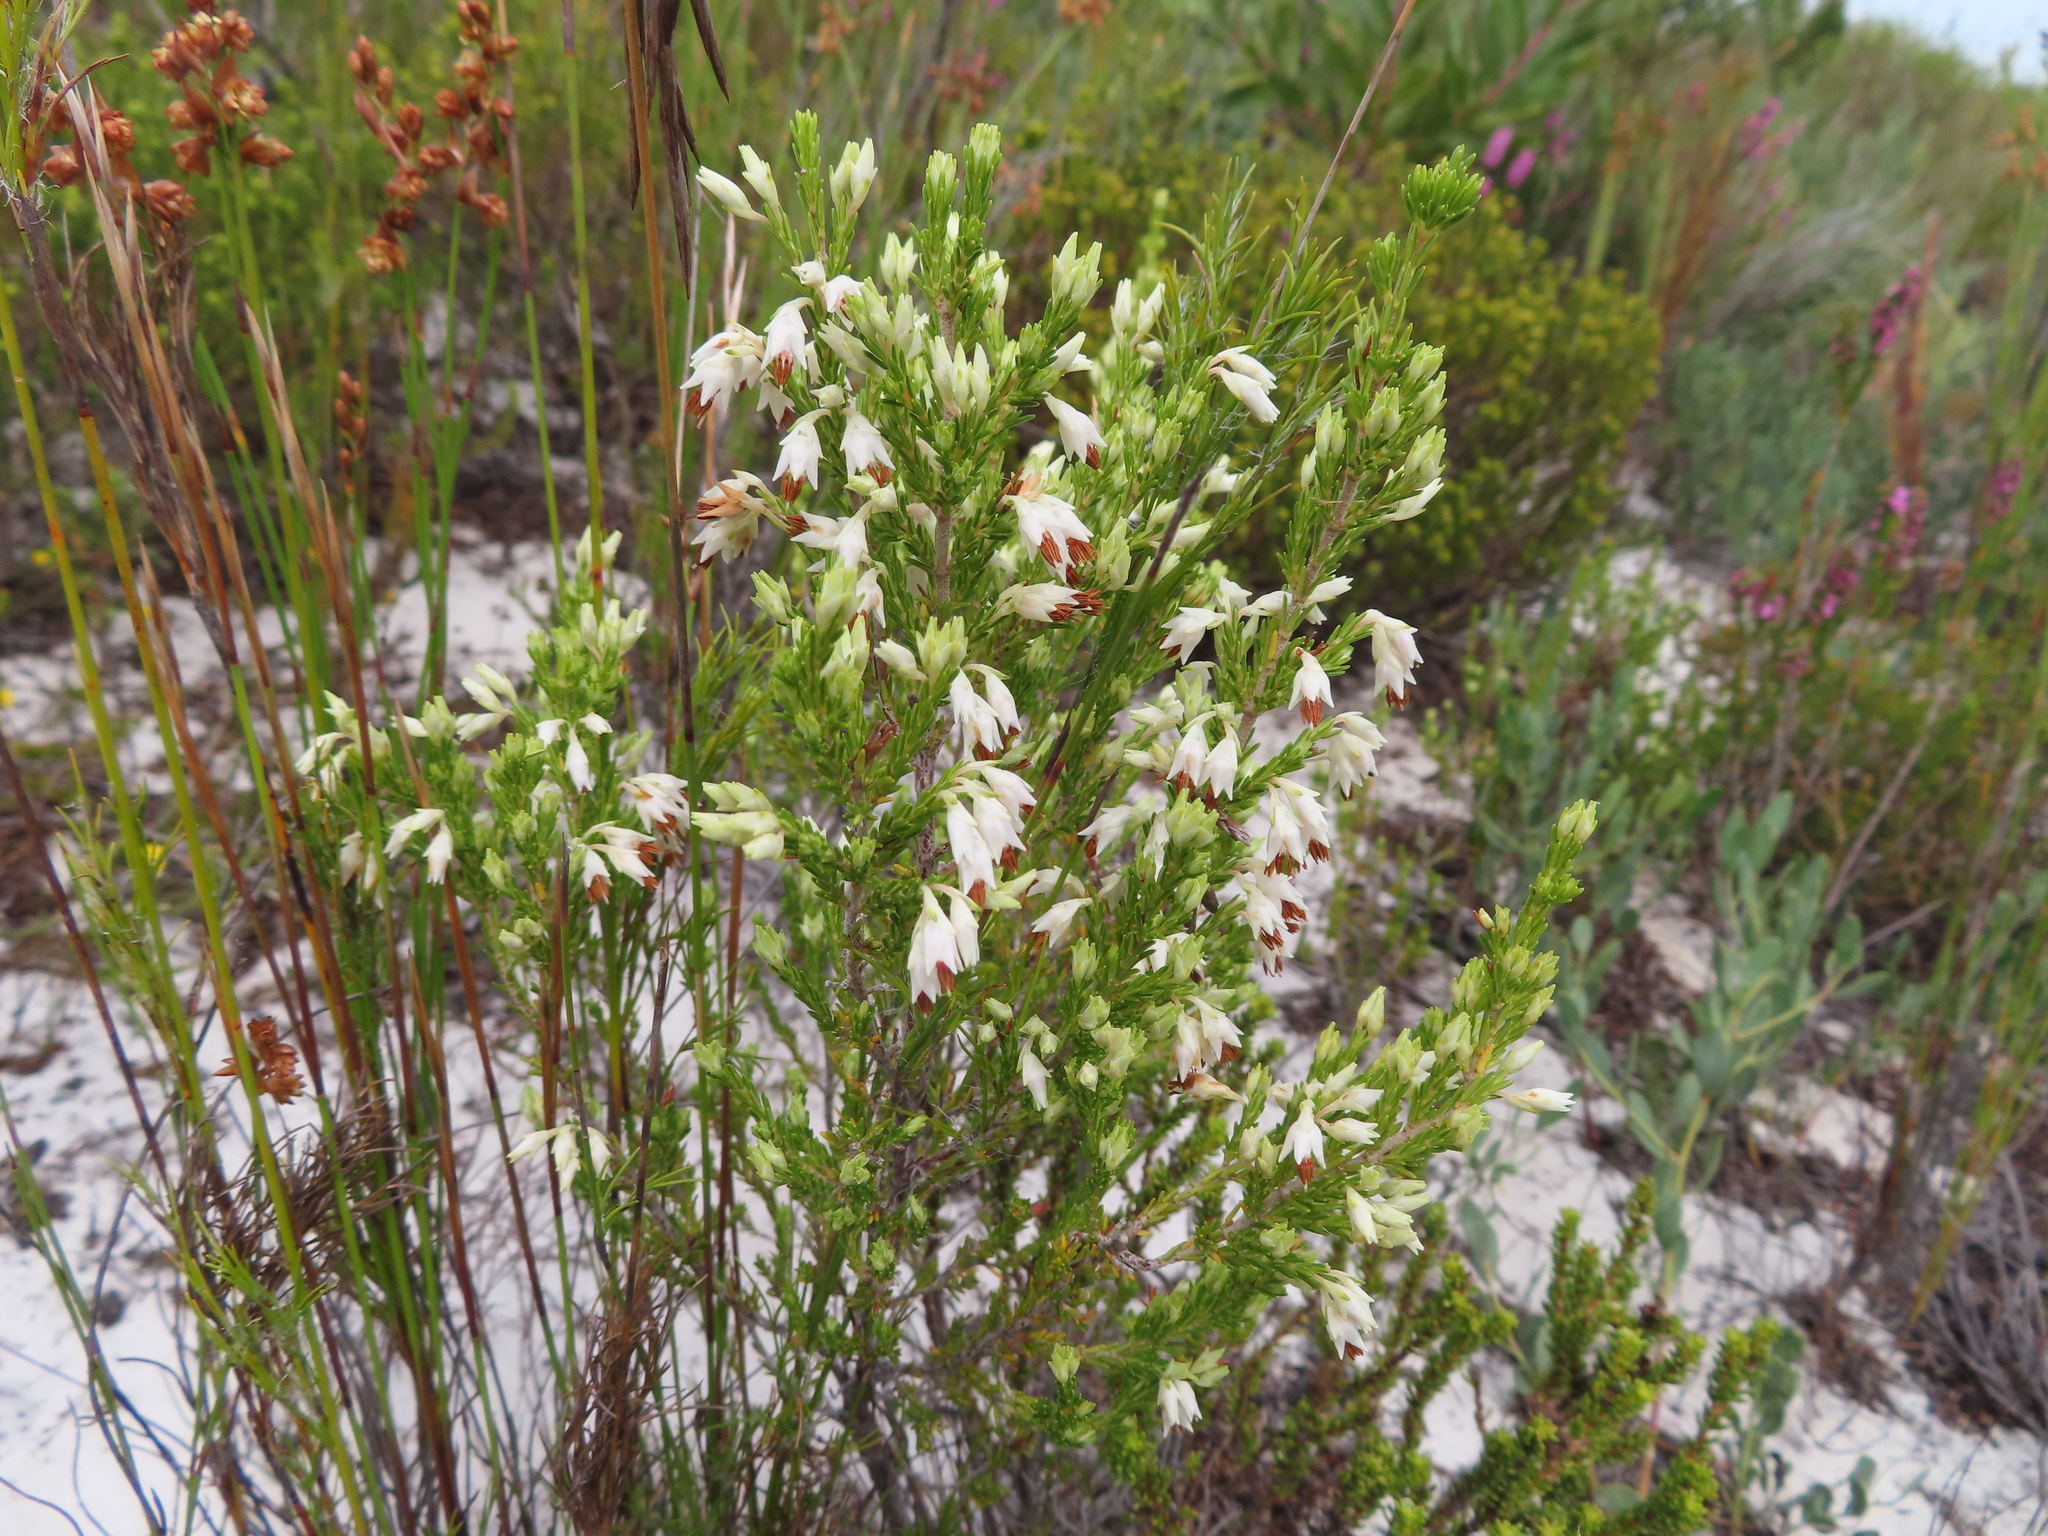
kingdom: Plantae
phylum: Tracheophyta
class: Magnoliopsida
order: Ericales
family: Ericaceae
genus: Erica
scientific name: Erica penicilliformis
